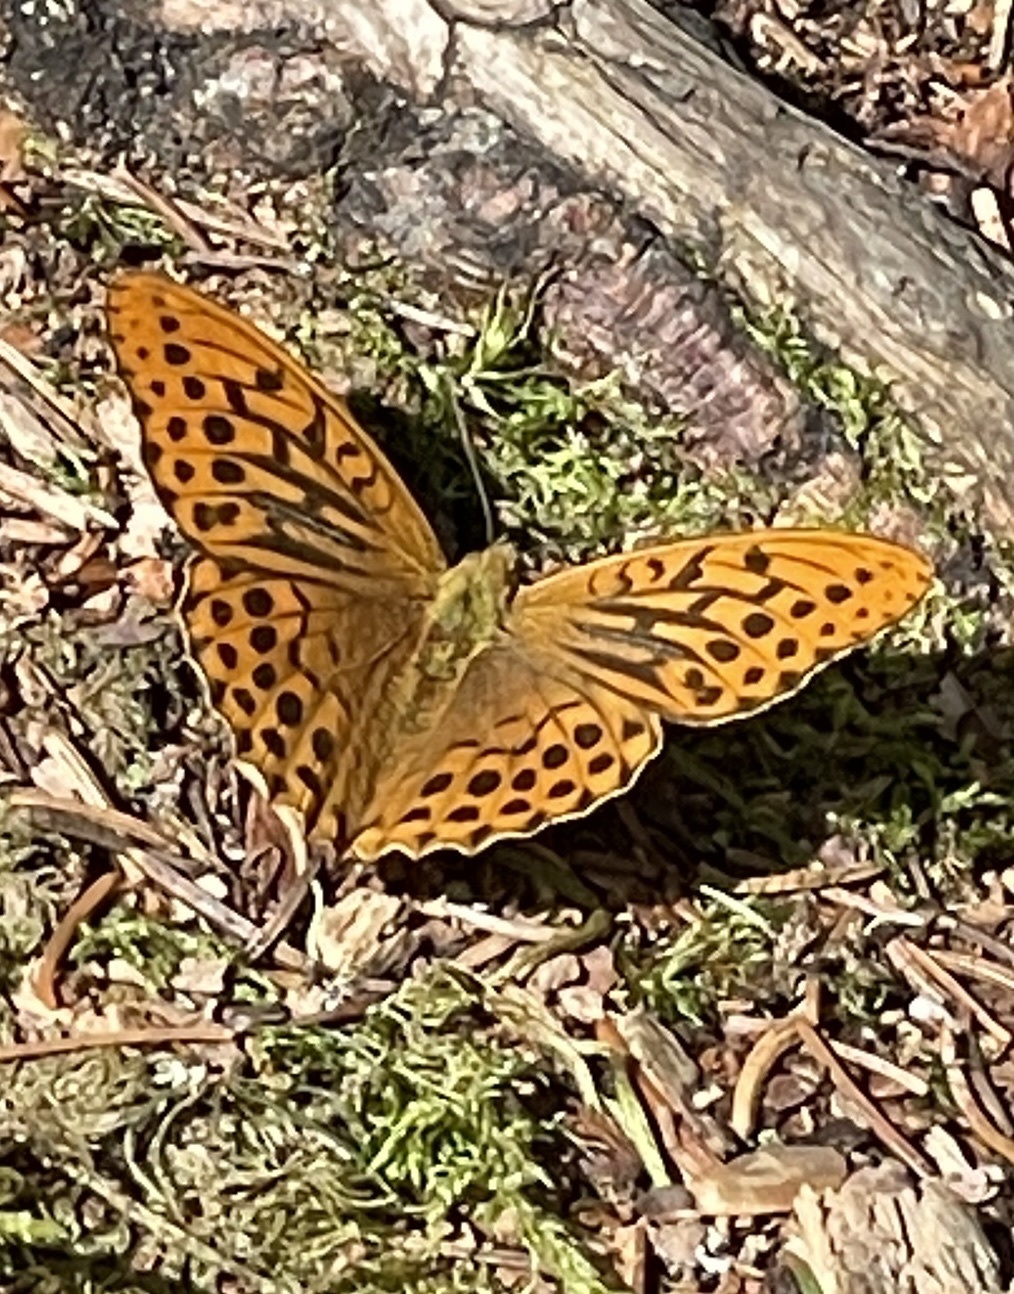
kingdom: Animalia
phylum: Arthropoda
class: Insecta
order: Lepidoptera
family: Nymphalidae
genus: Argynnis
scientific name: Argynnis paphia
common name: Silver-washed fritillary
